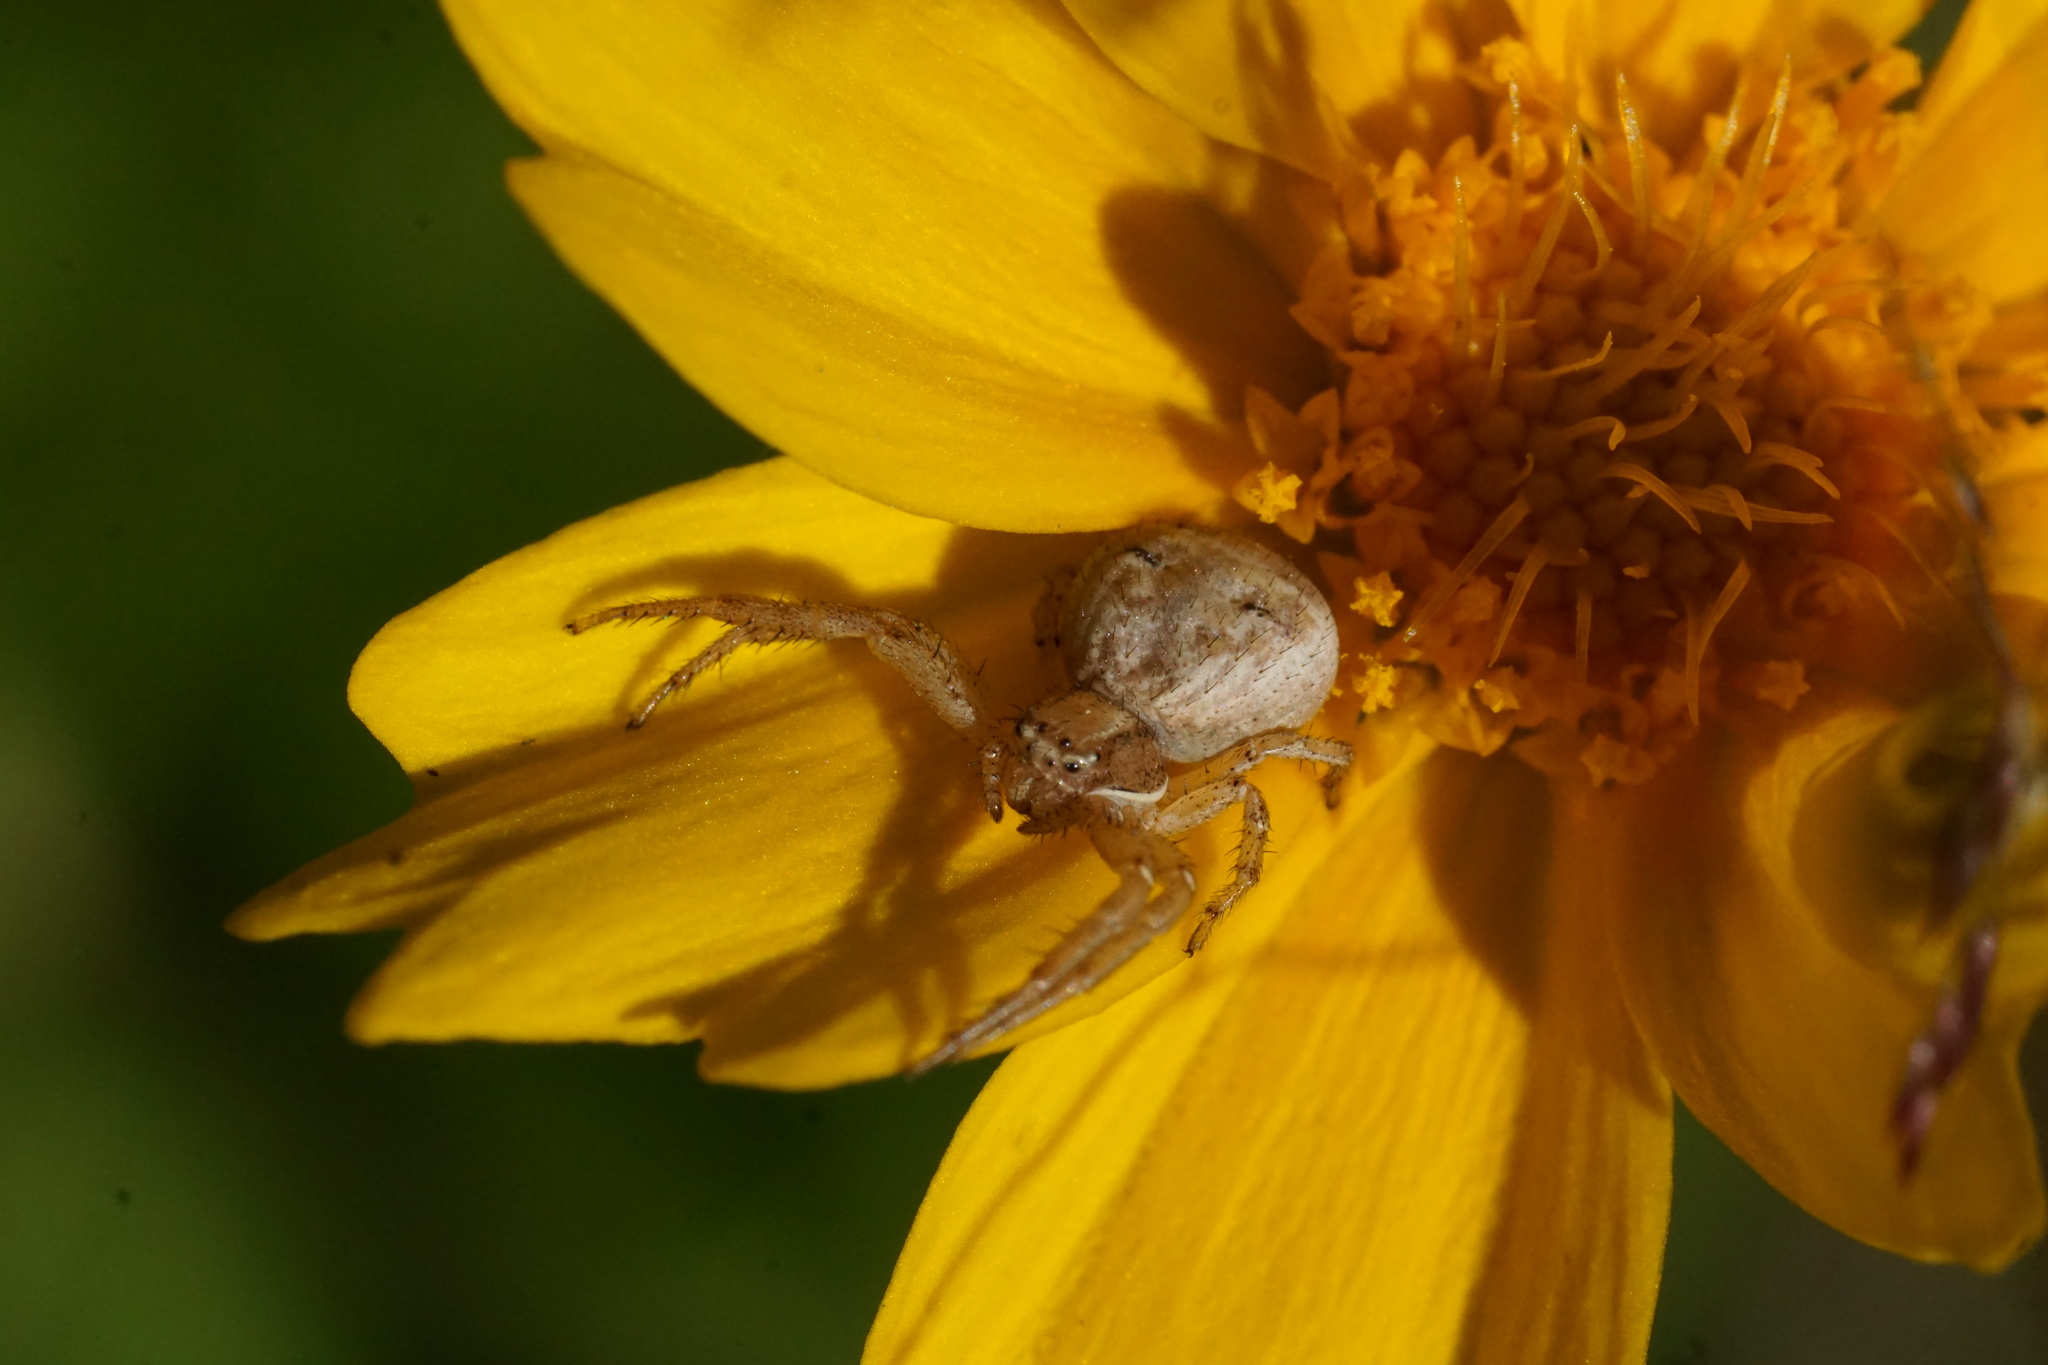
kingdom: Animalia
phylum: Arthropoda
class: Arachnida
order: Araneae
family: Thomisidae
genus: Xysticus
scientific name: Xysticus
